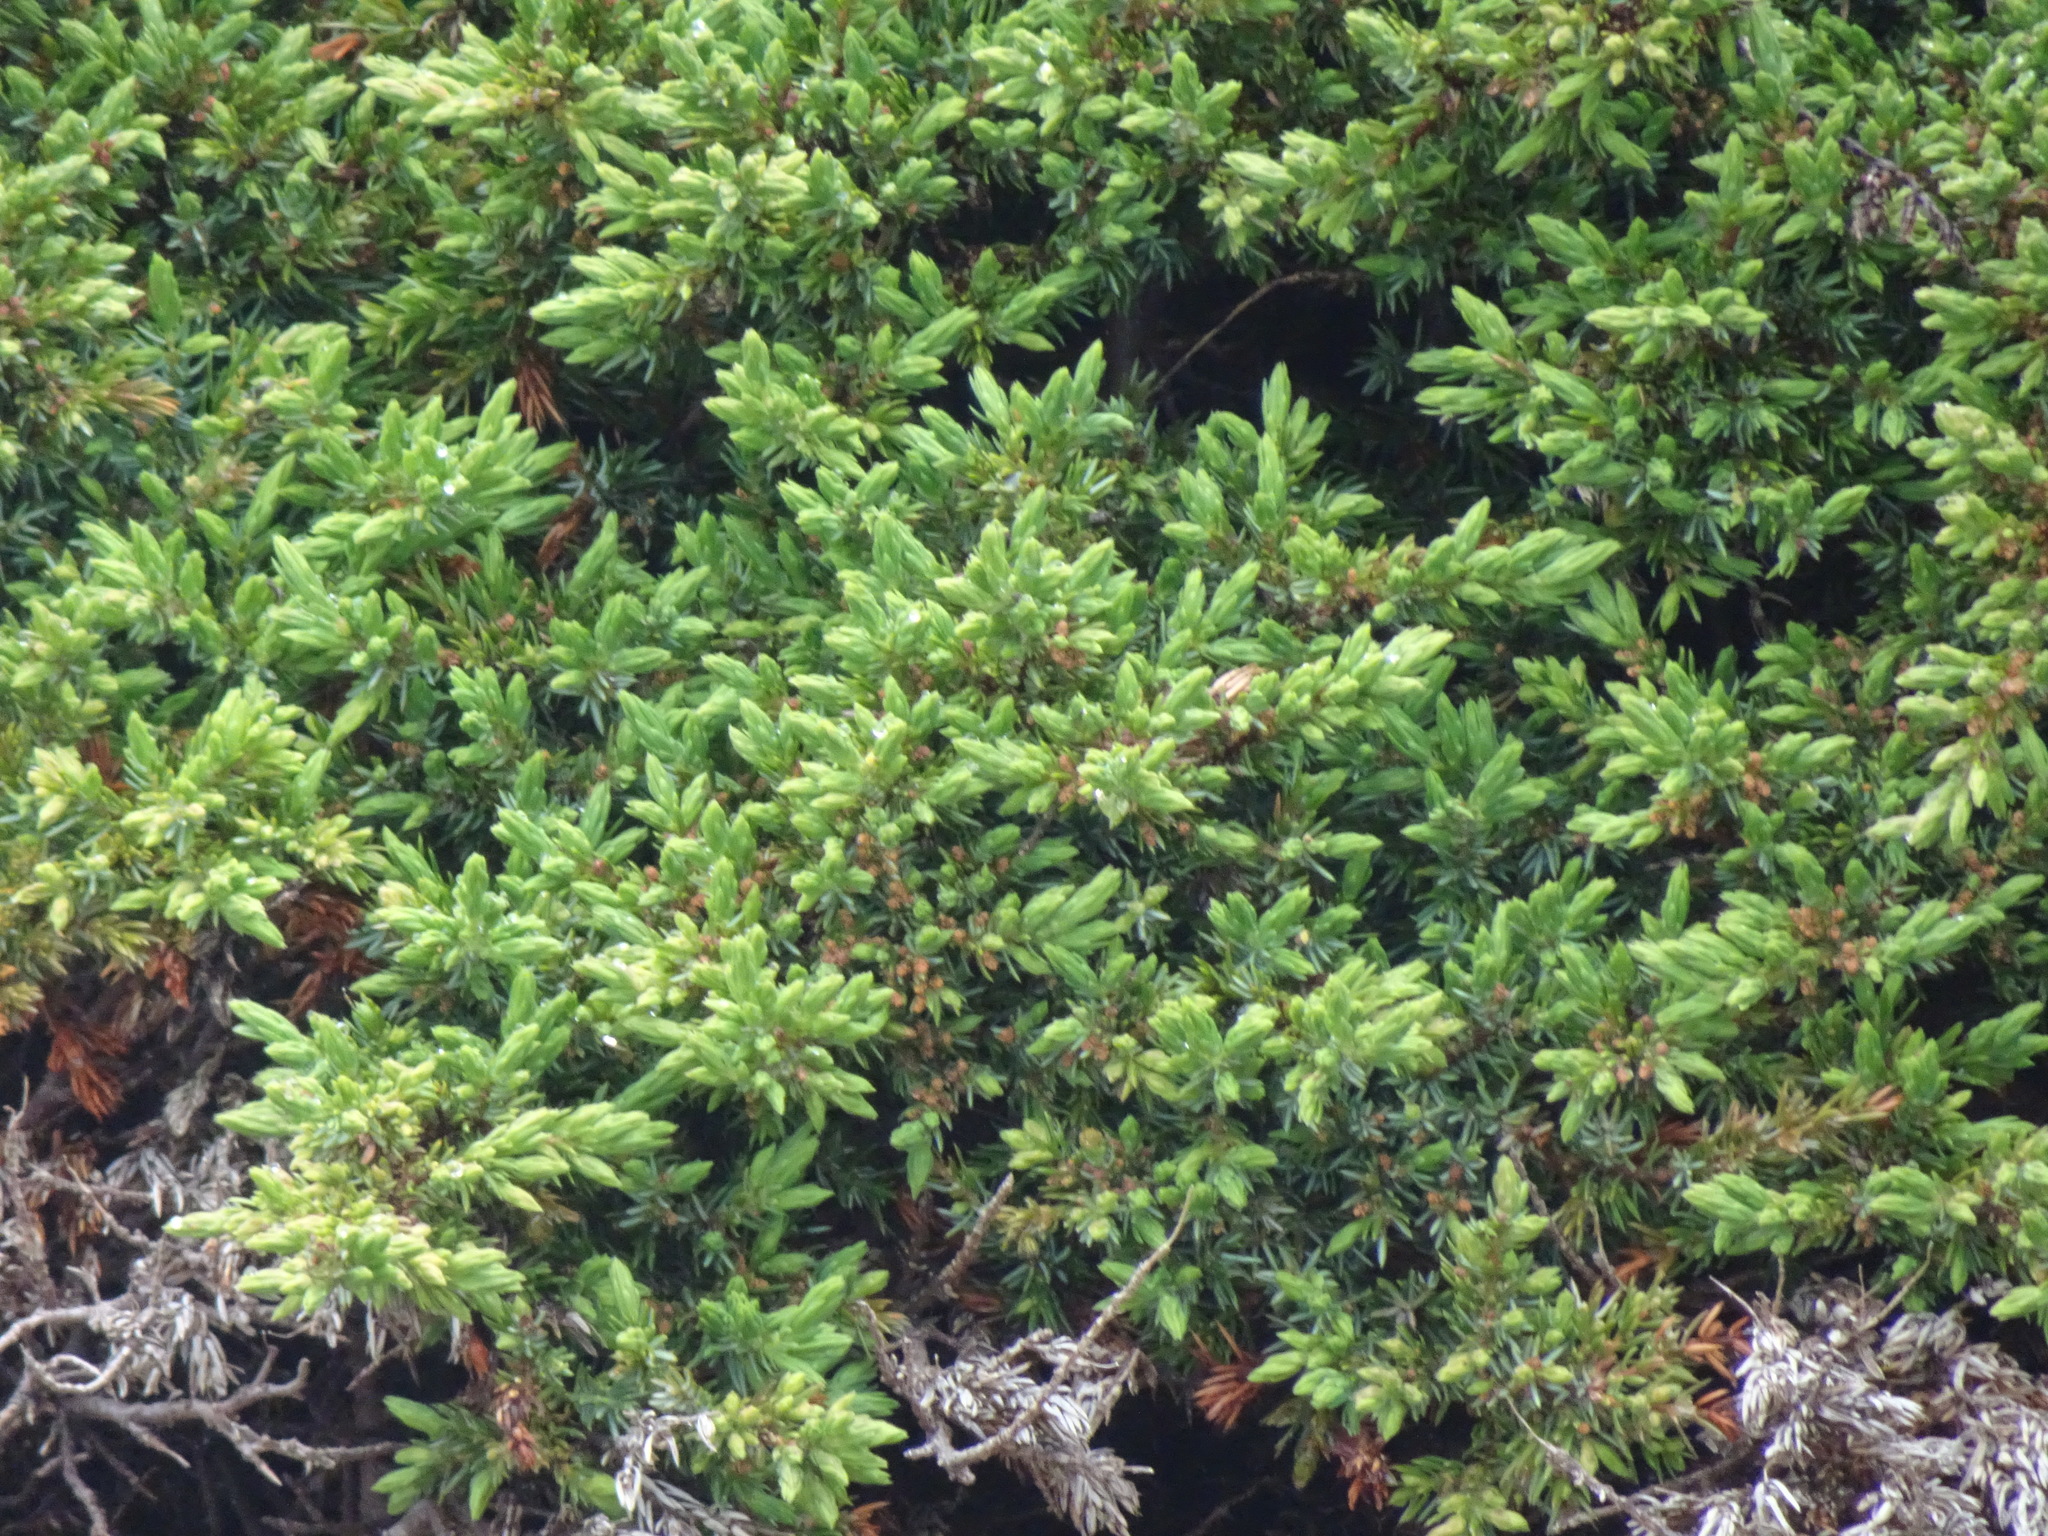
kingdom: Plantae
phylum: Tracheophyta
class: Pinopsida
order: Pinales
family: Cupressaceae
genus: Juniperus
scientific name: Juniperus communis
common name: Common juniper
